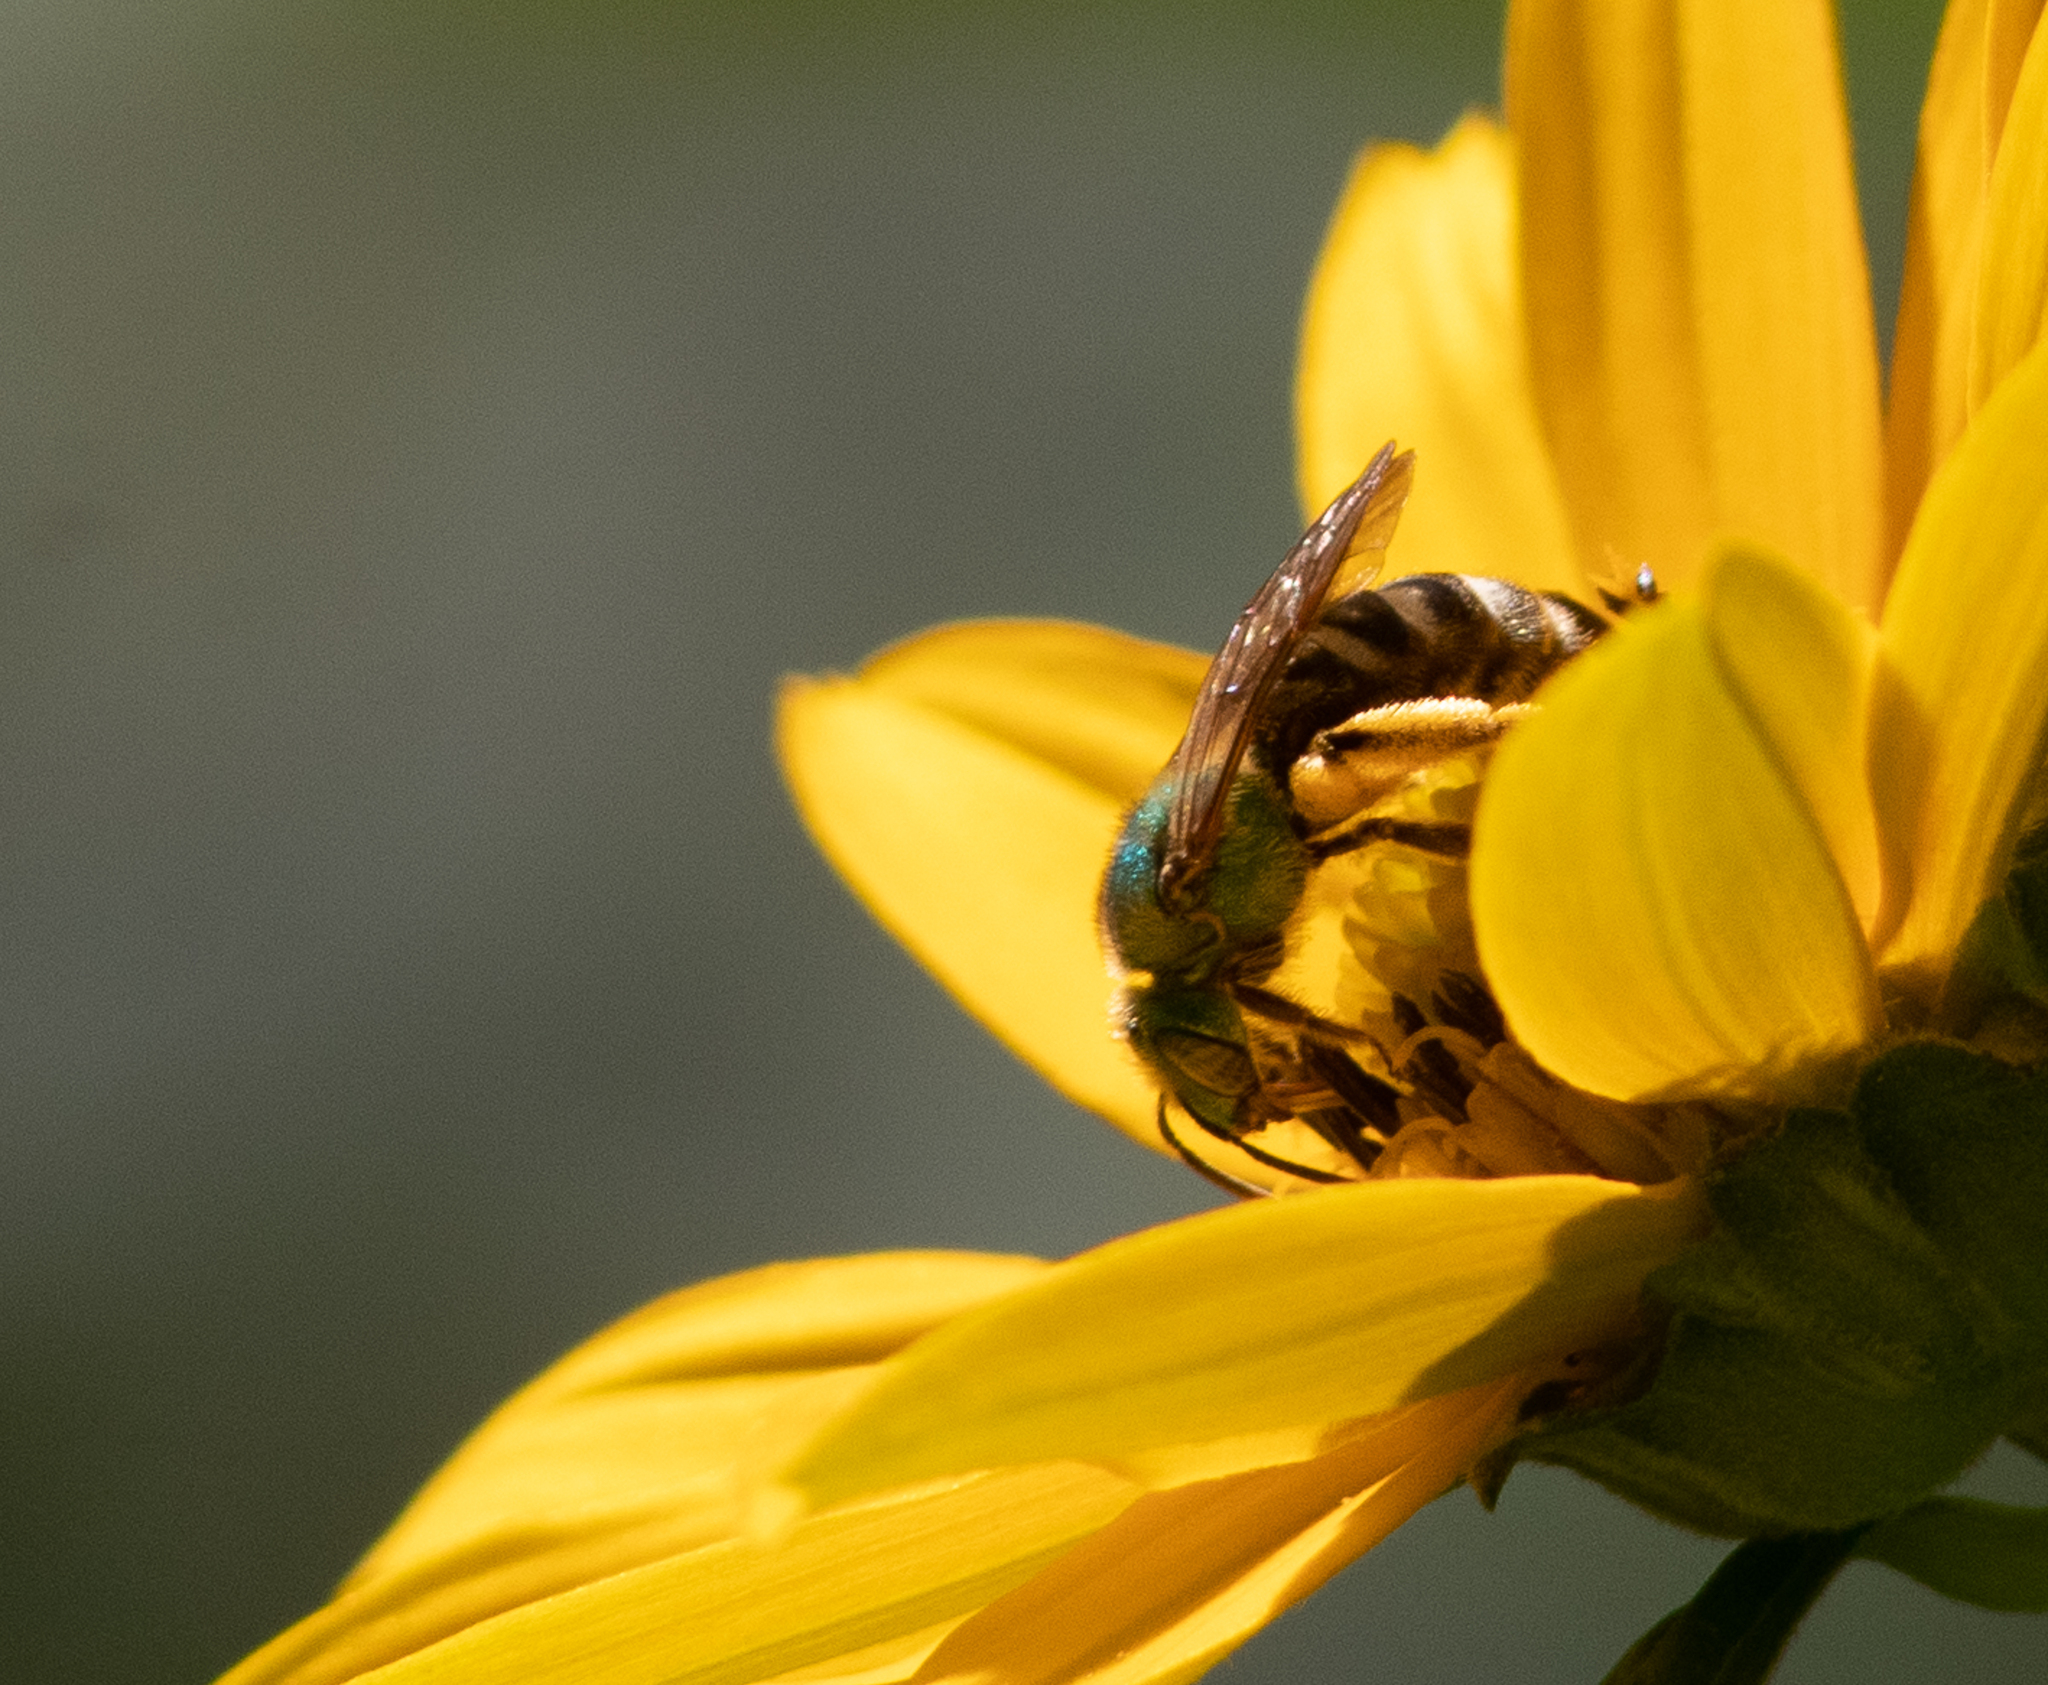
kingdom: Animalia
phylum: Arthropoda
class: Insecta
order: Hymenoptera
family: Halictidae
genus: Agapostemon
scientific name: Agapostemon virescens
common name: Bicolored striped sweat bee
